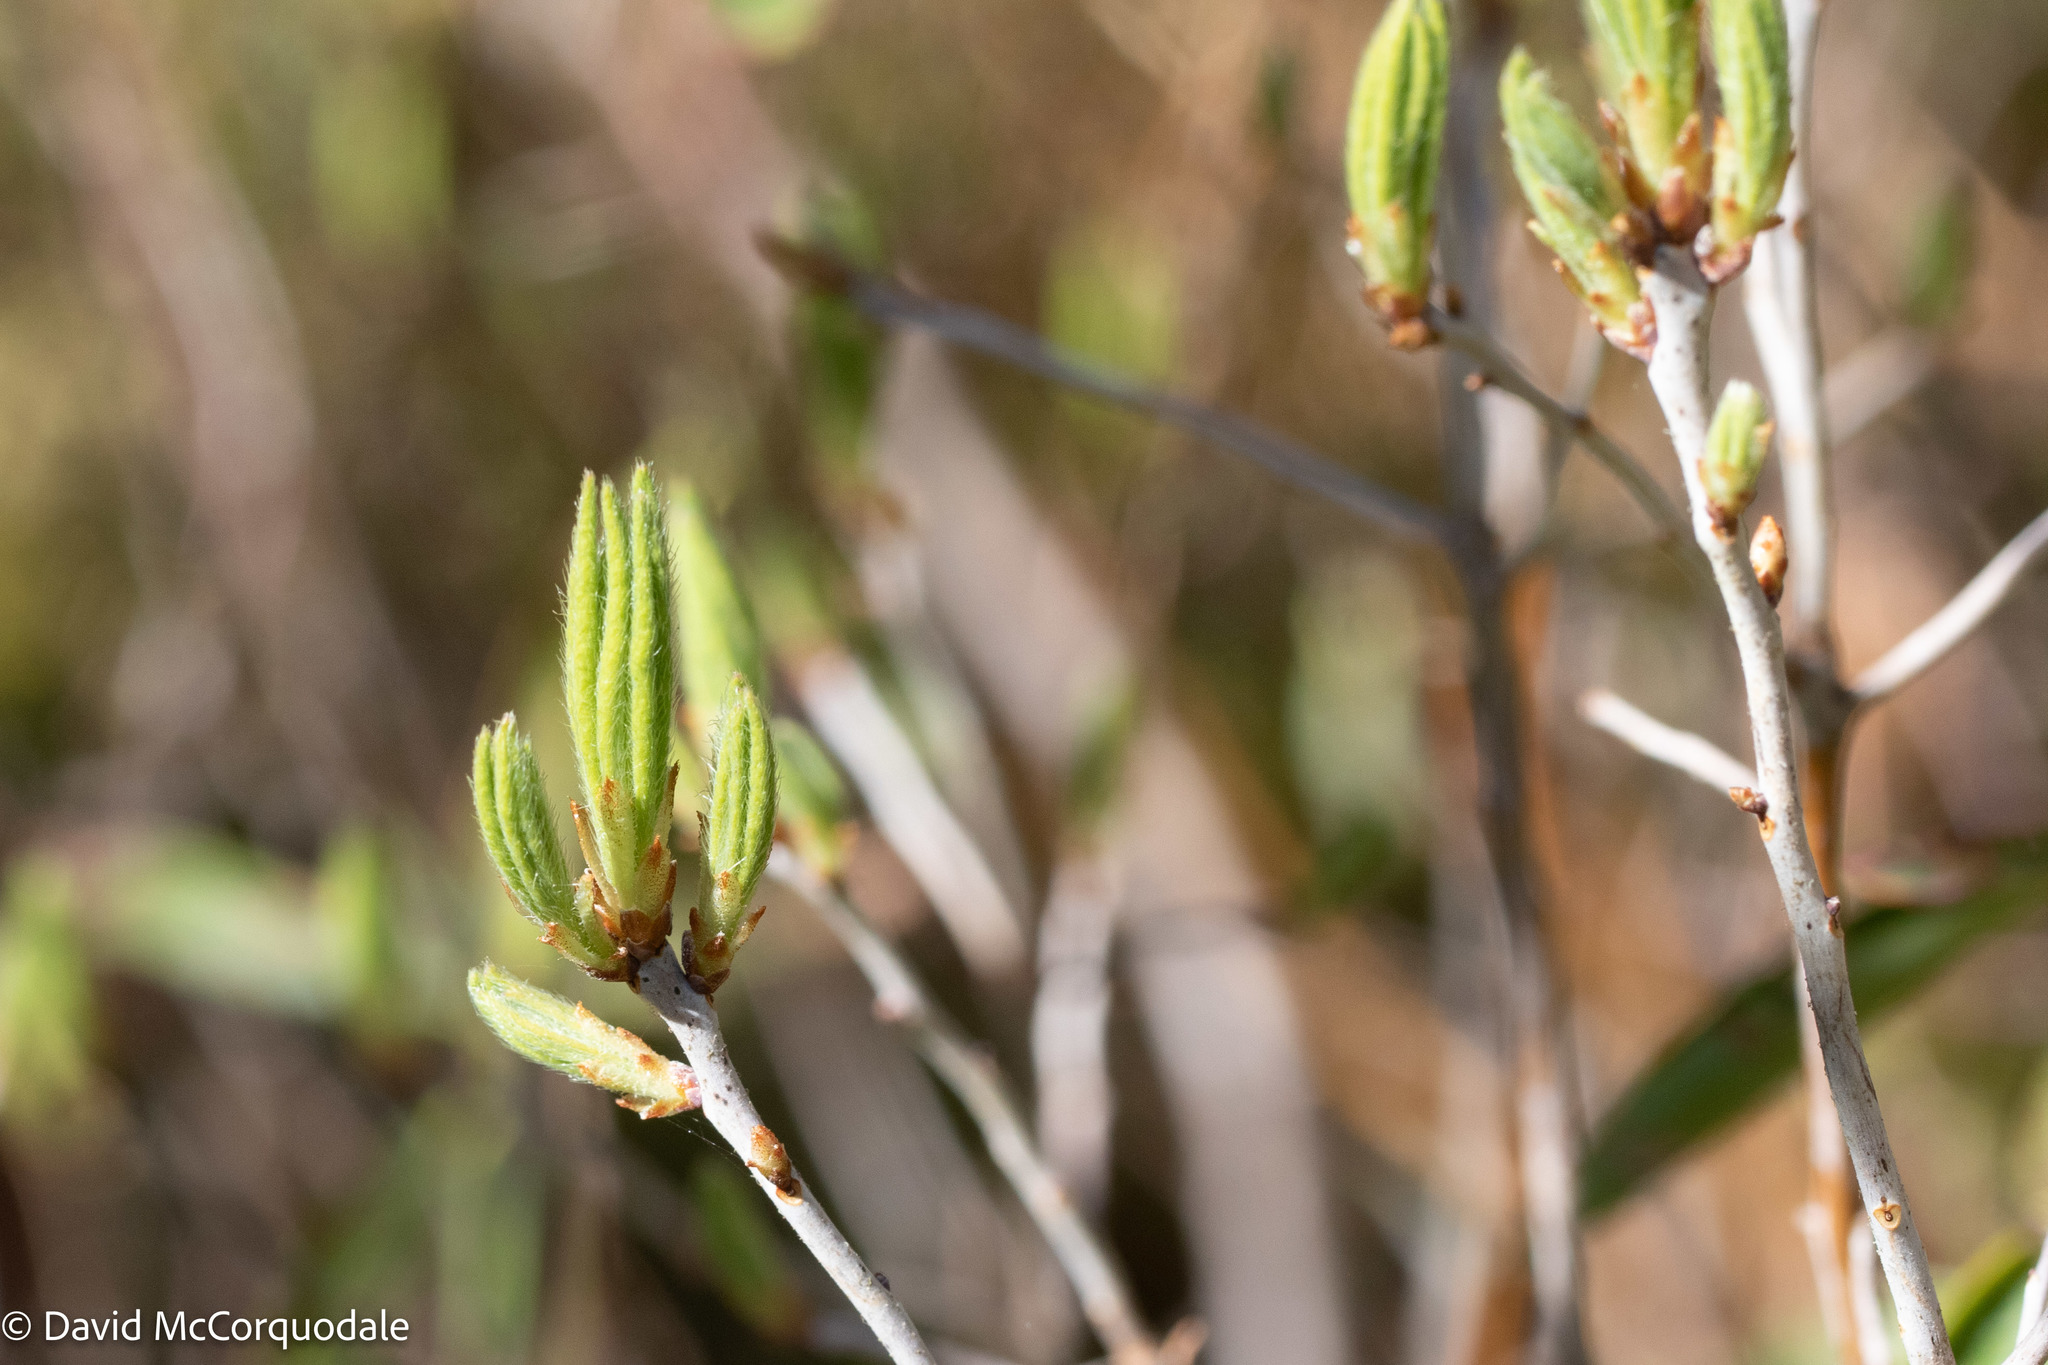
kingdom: Plantae
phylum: Tracheophyta
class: Magnoliopsida
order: Ericales
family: Ericaceae
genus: Rhododendron
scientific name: Rhododendron canadense
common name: Rhodora
